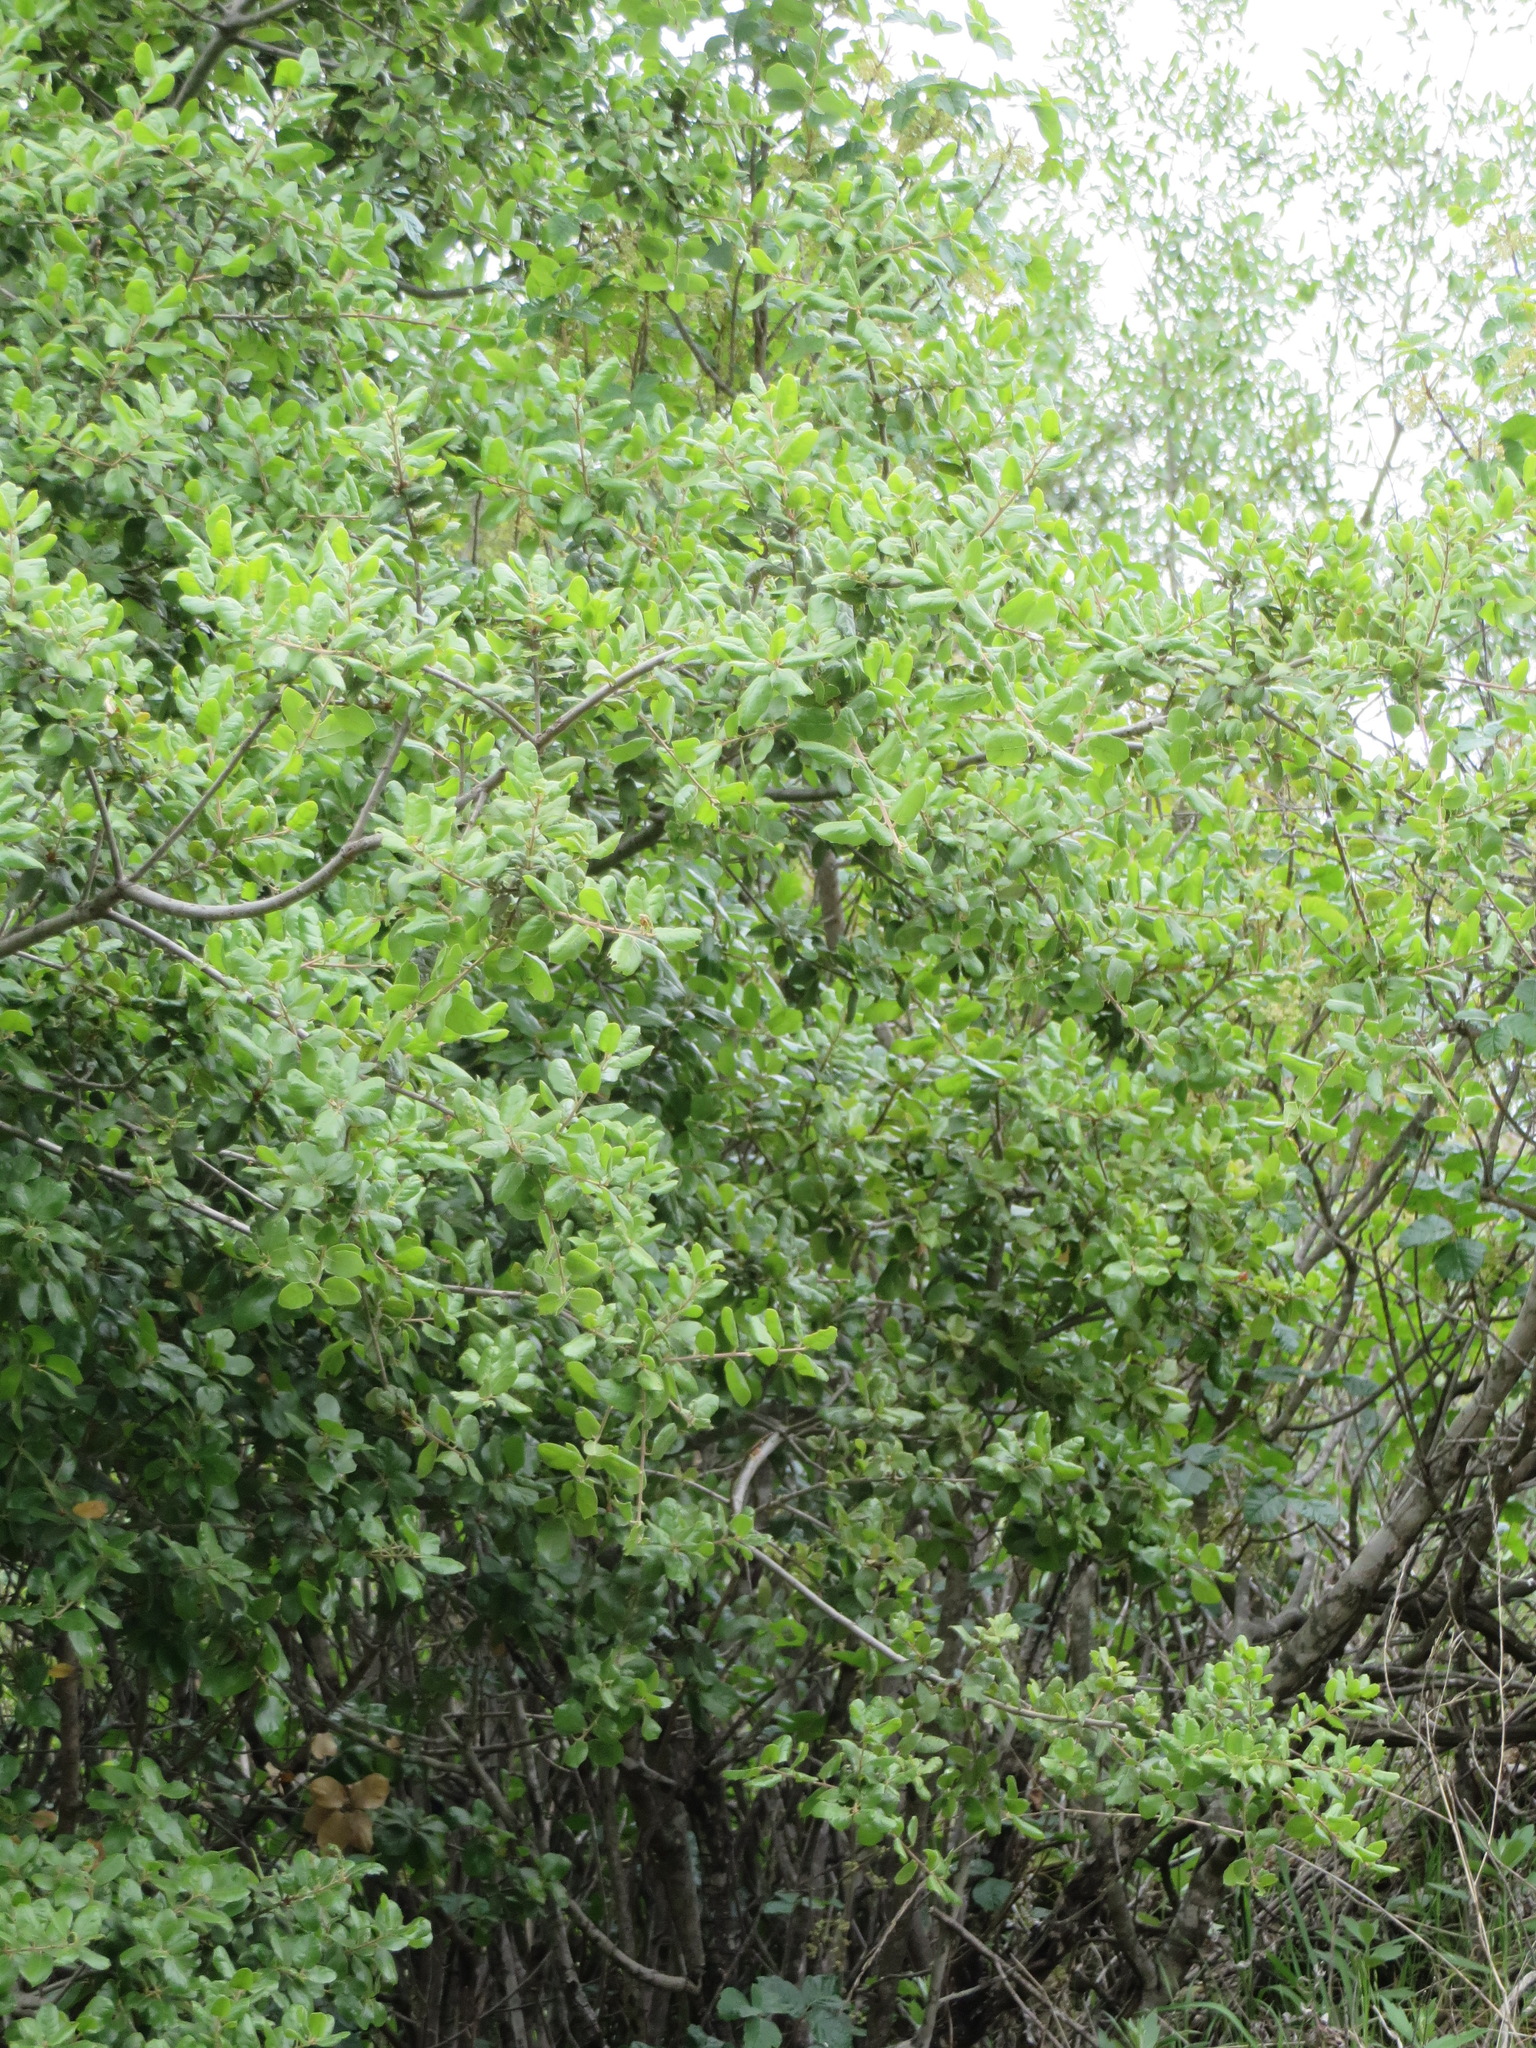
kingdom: Plantae
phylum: Tracheophyta
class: Magnoliopsida
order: Fagales
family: Fagaceae
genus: Quercus
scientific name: Quercus agrifolia
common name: California live oak
